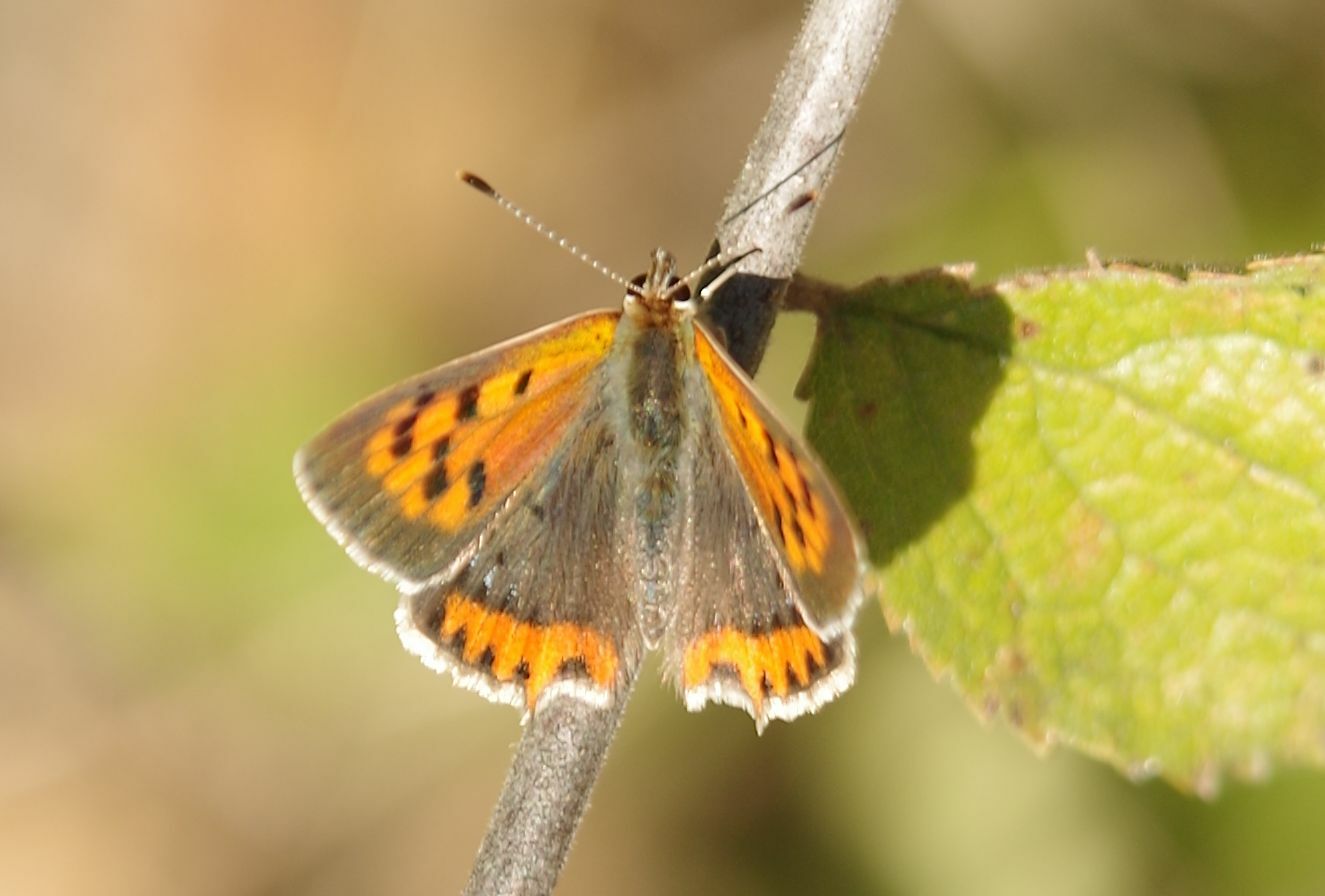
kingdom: Animalia
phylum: Arthropoda
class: Insecta
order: Lepidoptera
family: Lycaenidae
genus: Lycaena
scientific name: Lycaena phlaeas
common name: Small copper
